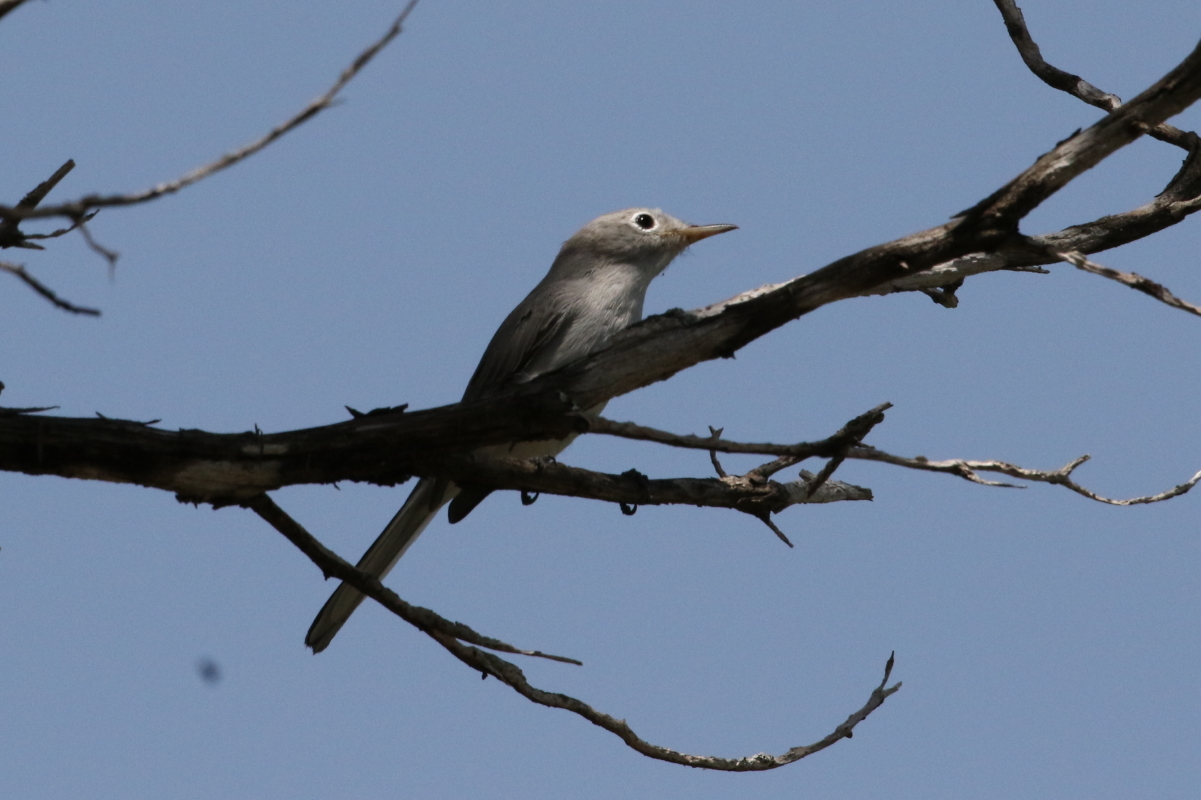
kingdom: Animalia
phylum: Chordata
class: Aves
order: Passeriformes
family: Polioptilidae
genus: Polioptila
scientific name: Polioptila caerulea
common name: Blue-gray gnatcatcher
